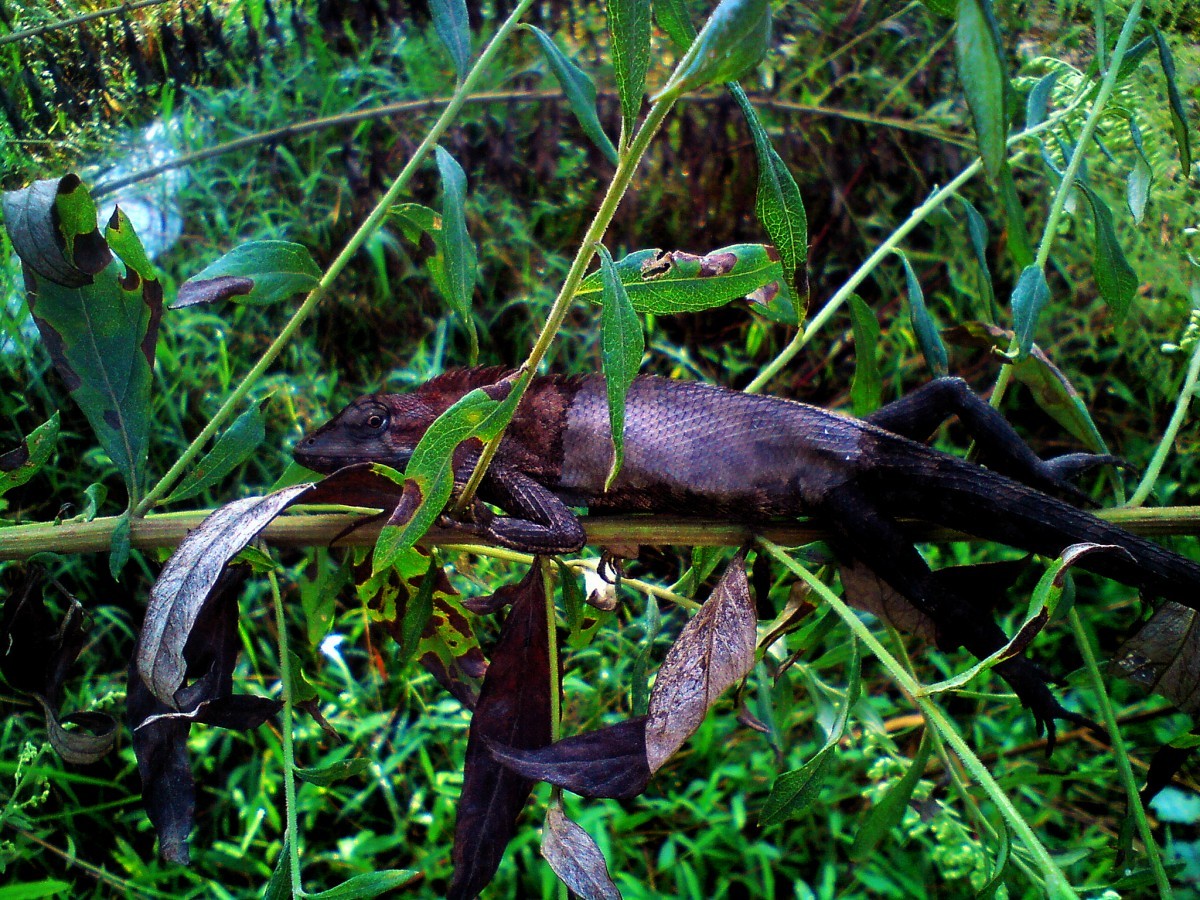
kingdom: Animalia
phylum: Chordata
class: Squamata
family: Agamidae
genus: Calotes
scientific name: Calotes versicolor
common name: Oriental garden lizard
